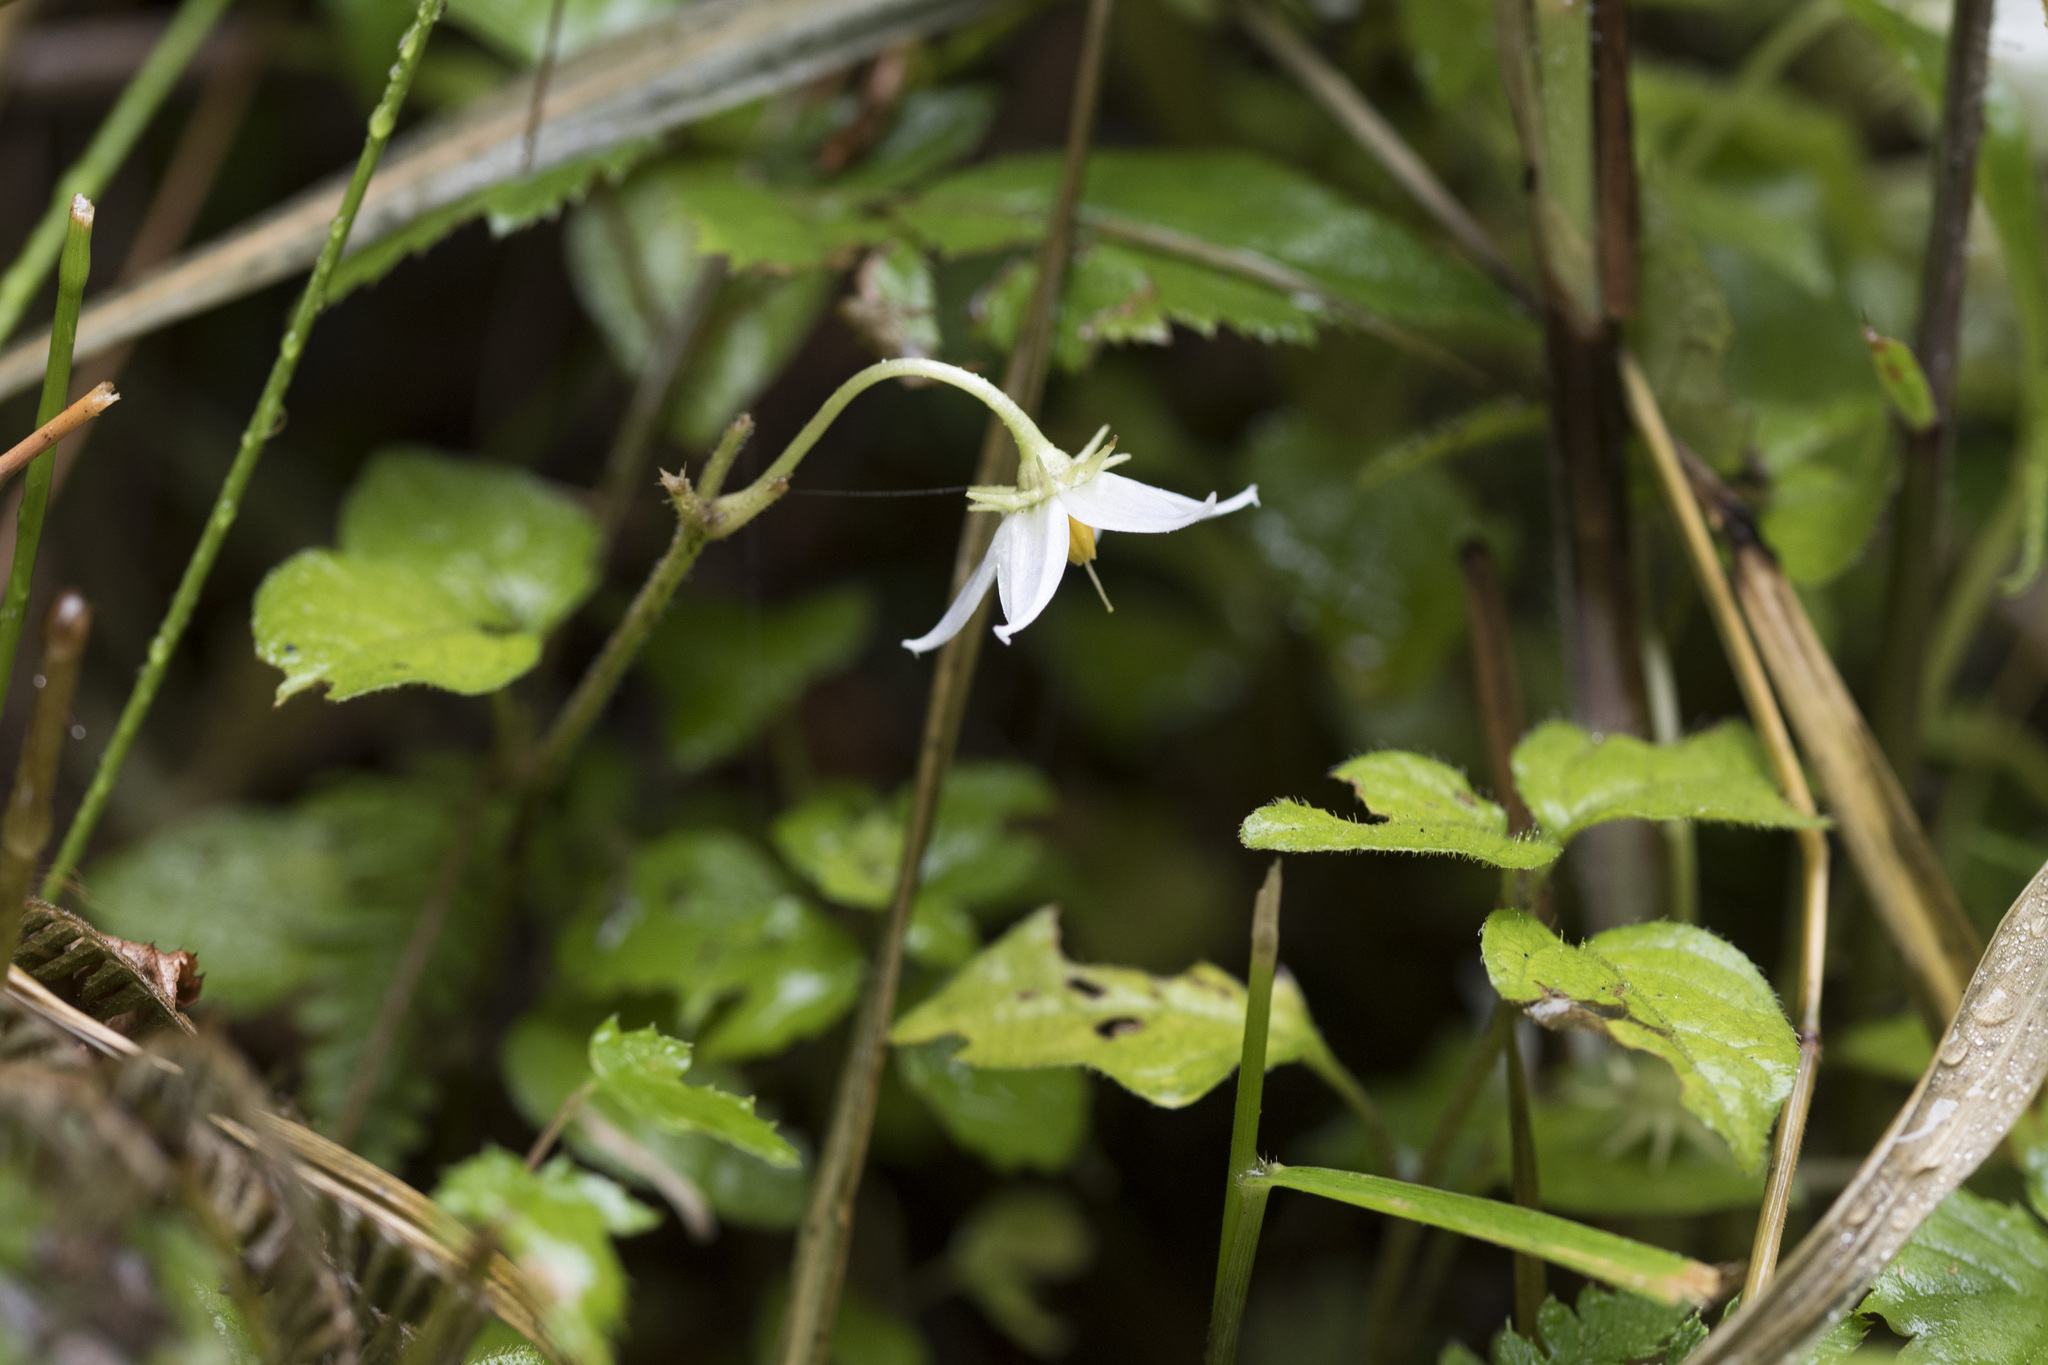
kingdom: Plantae
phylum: Tracheophyta
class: Magnoliopsida
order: Solanales
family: Solanaceae
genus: Lycianthes
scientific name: Lycianthes lysimachioides
